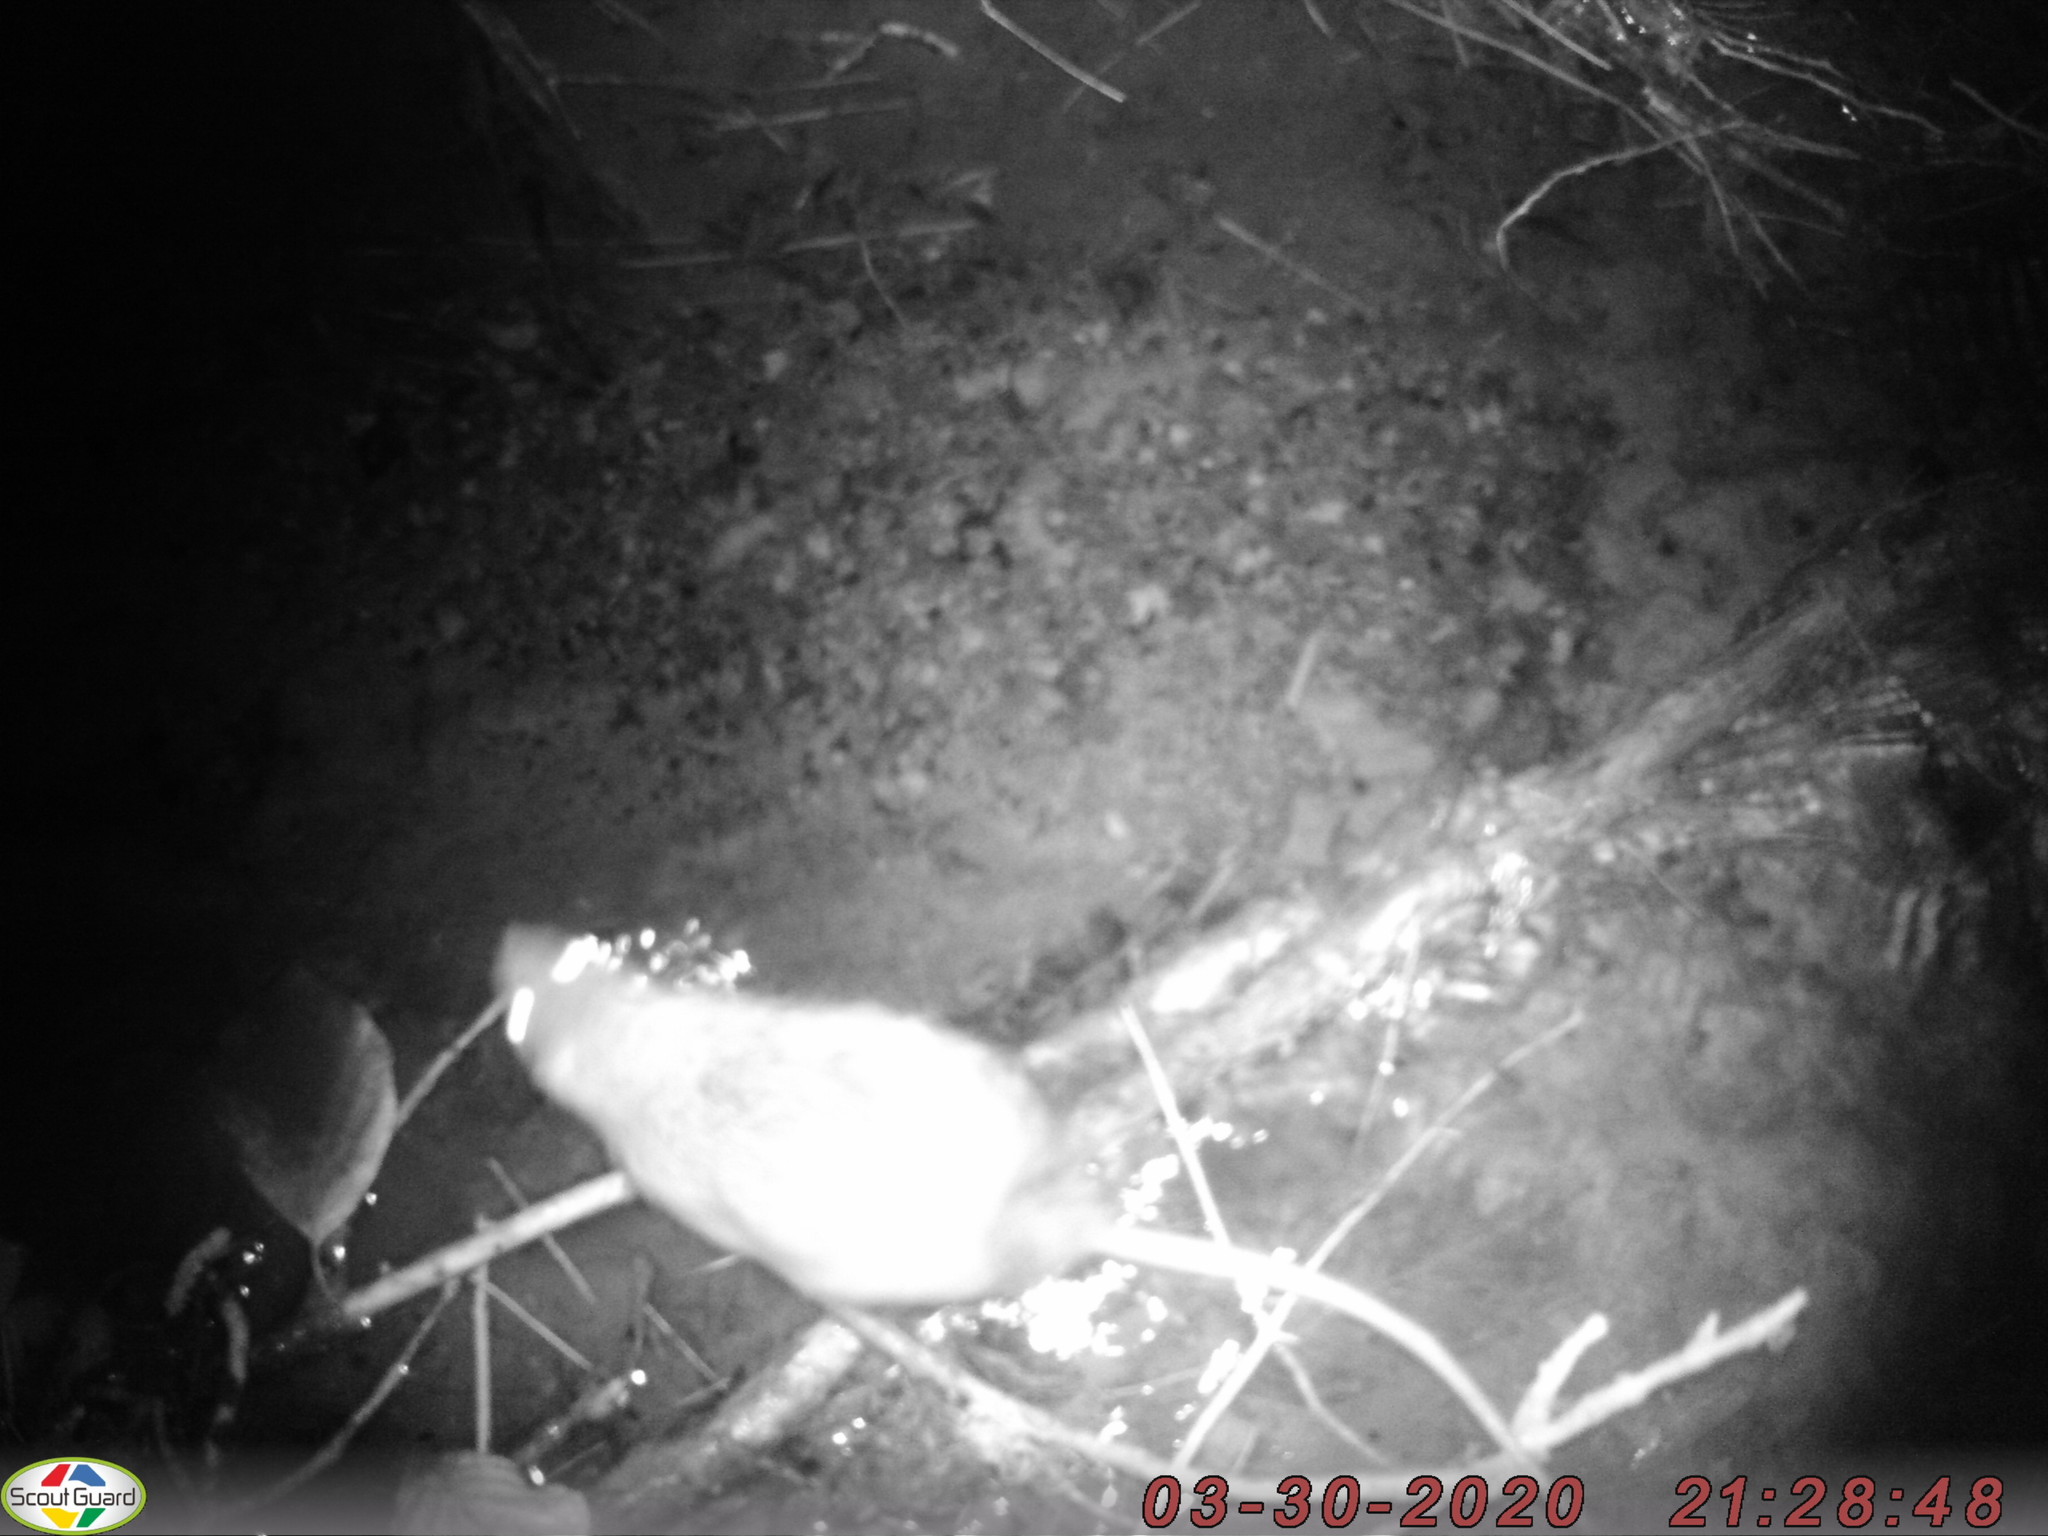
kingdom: Animalia
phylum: Chordata
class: Mammalia
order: Rodentia
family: Muridae
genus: Rattus
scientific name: Rattus norvegicus
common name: Brown rat
